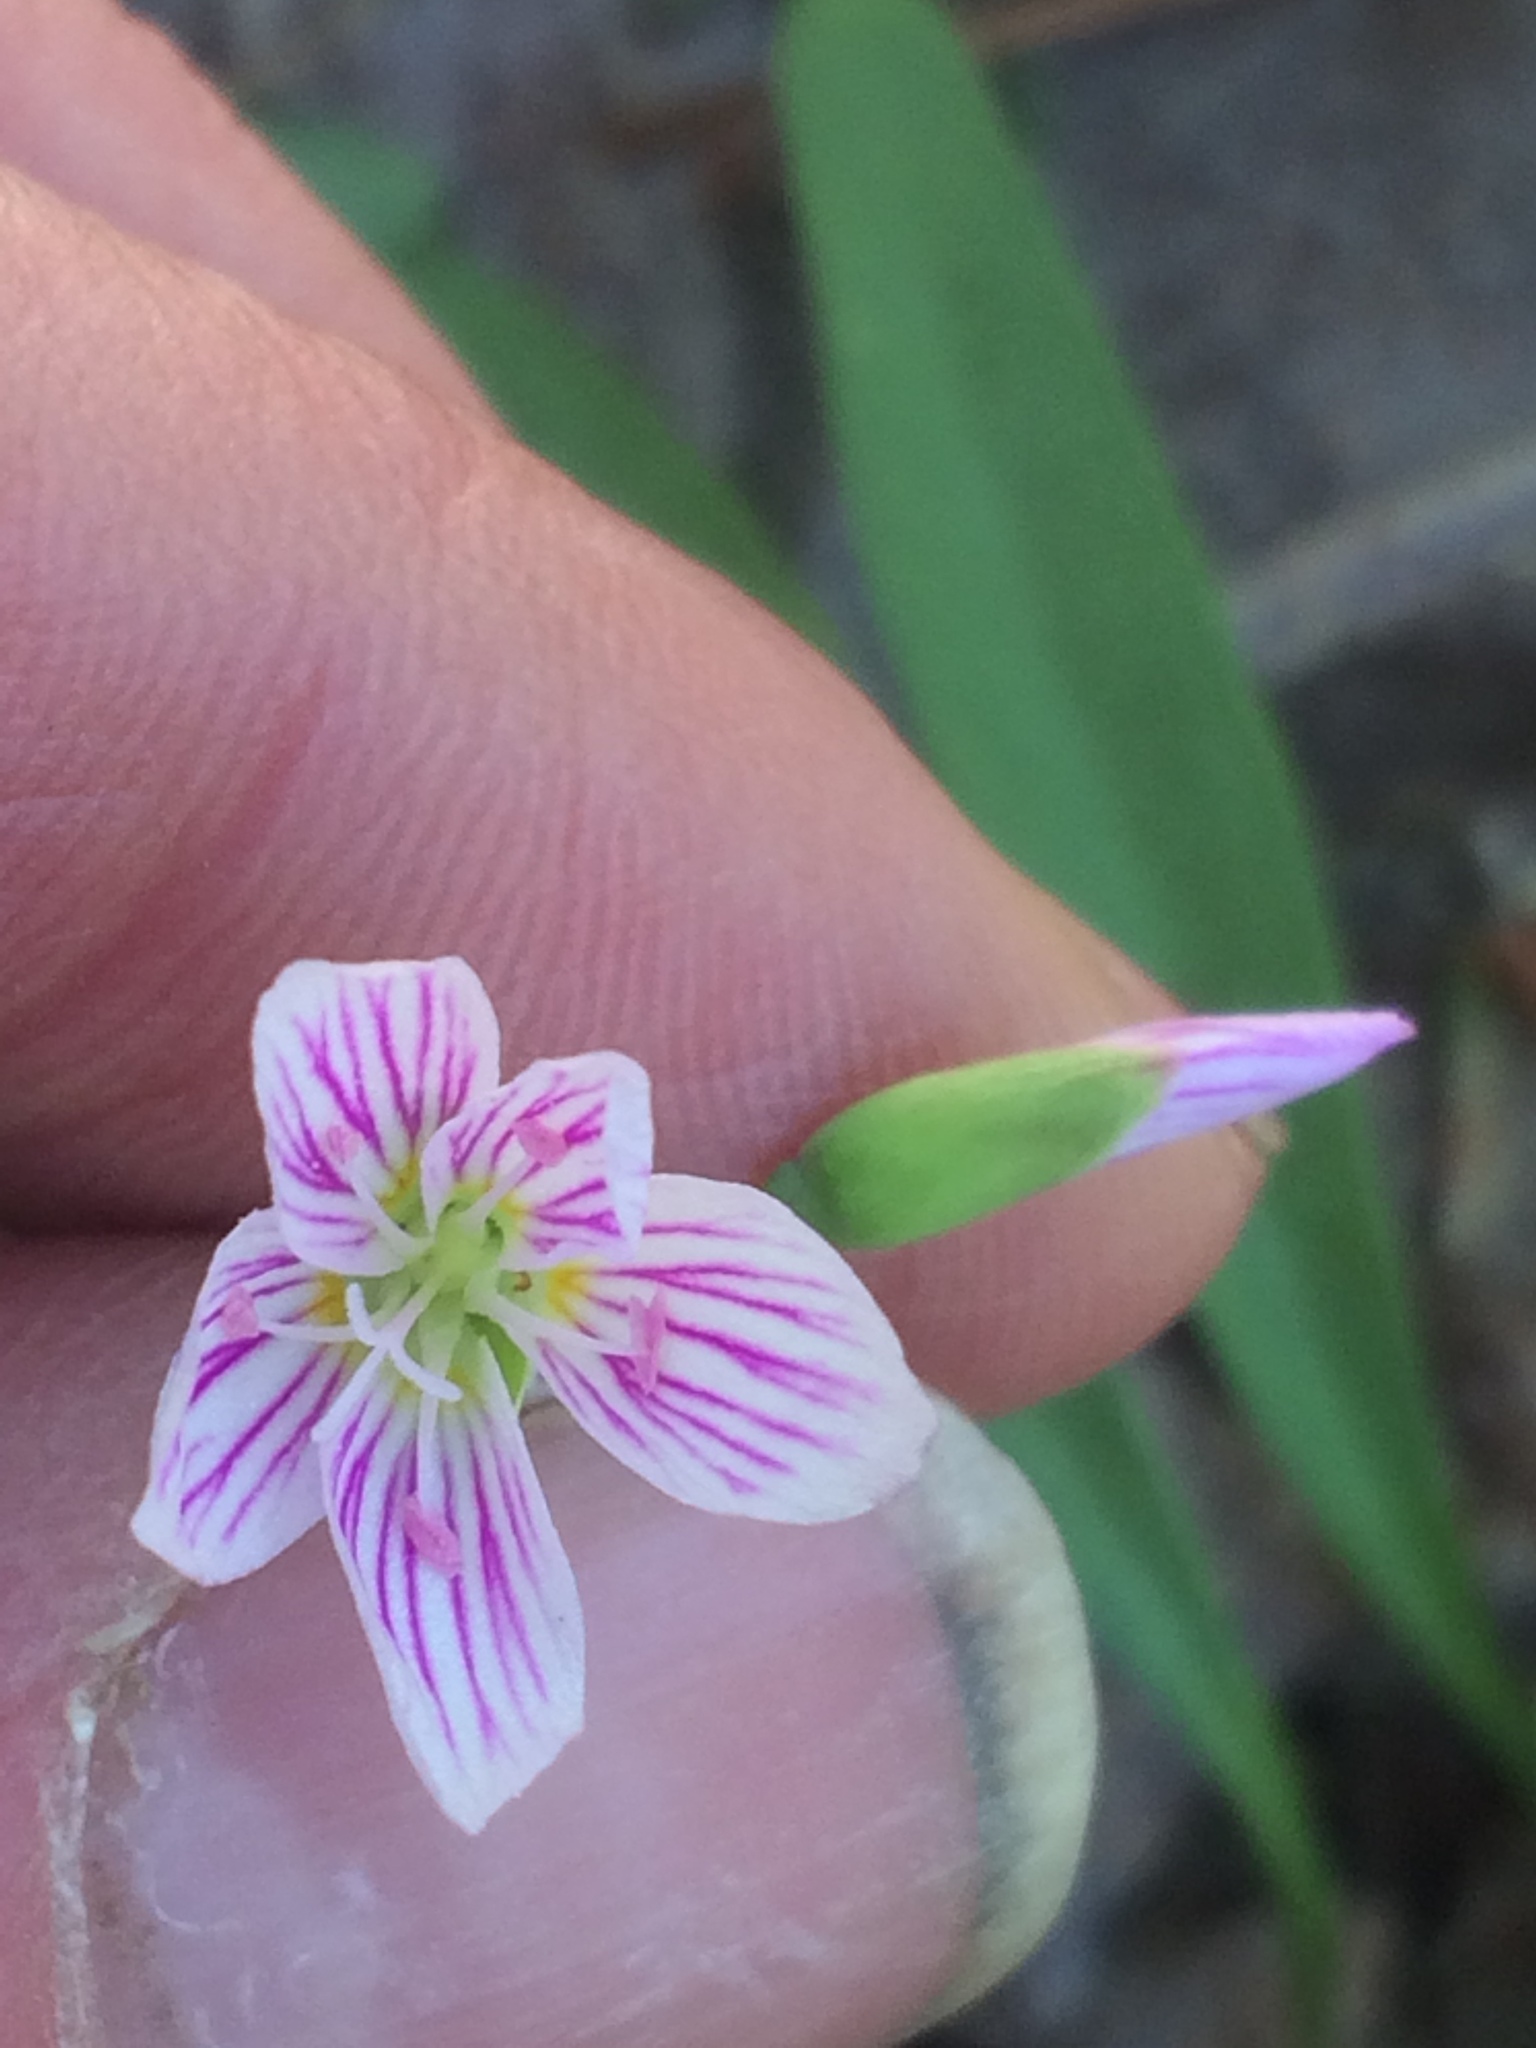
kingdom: Plantae
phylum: Tracheophyta
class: Magnoliopsida
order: Caryophyllales
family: Montiaceae
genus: Claytonia
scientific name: Claytonia caroliniana
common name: Carolina spring beauty
